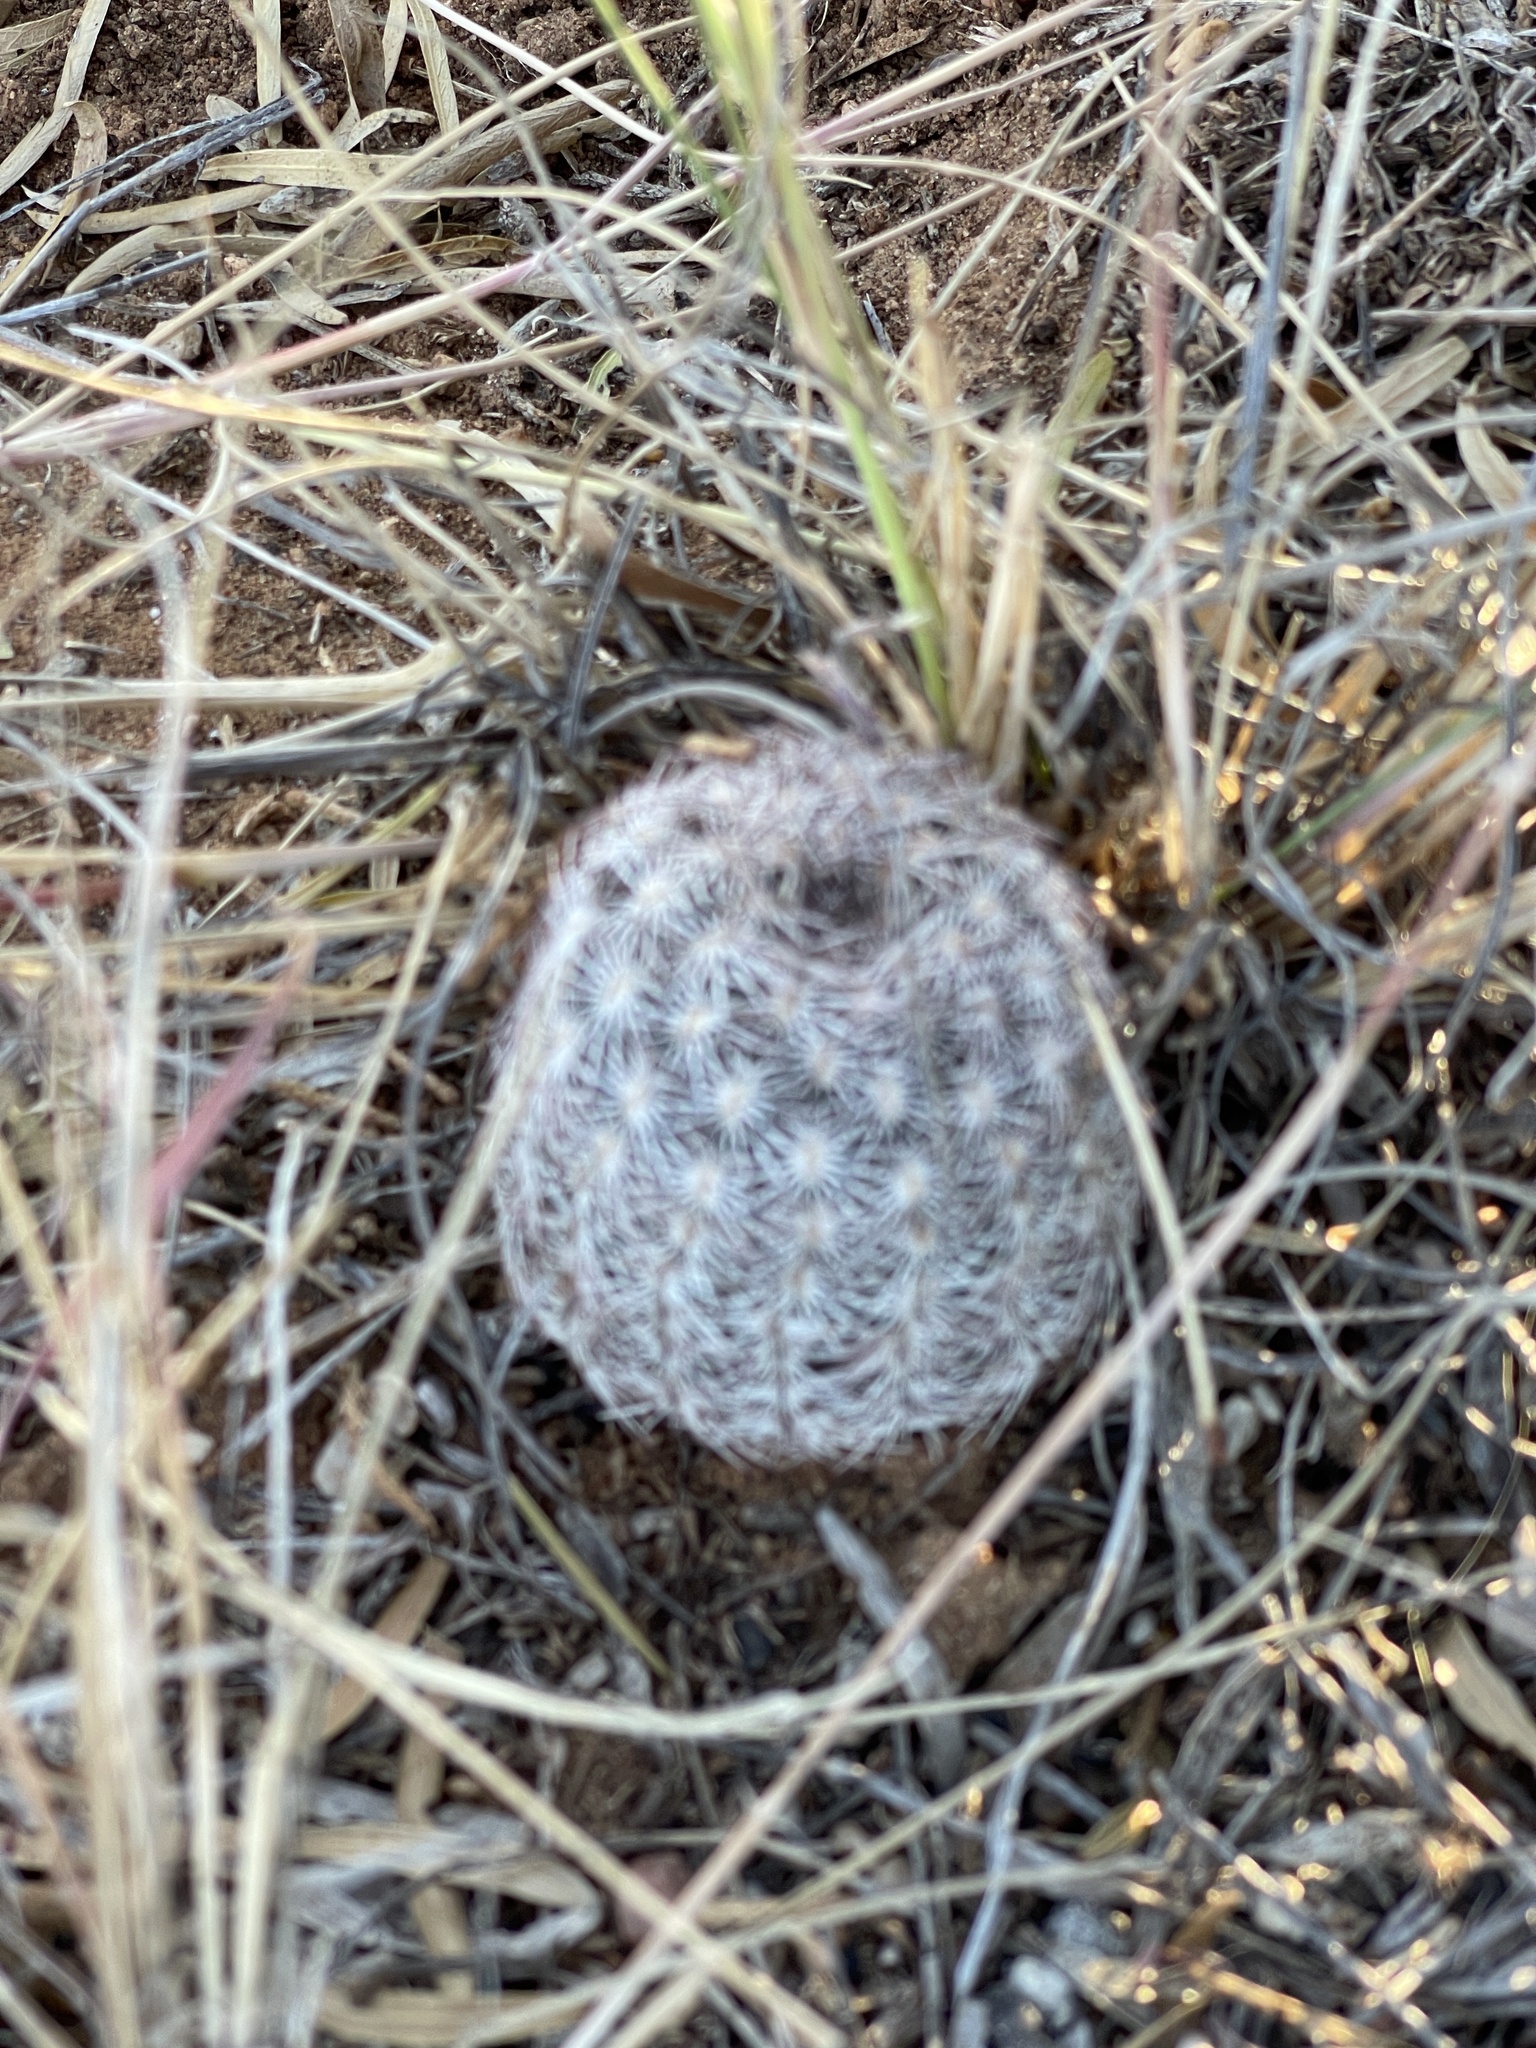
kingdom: Plantae
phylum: Tracheophyta
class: Magnoliopsida
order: Caryophyllales
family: Cactaceae
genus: Echinocereus
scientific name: Echinocereus reichenbachii
